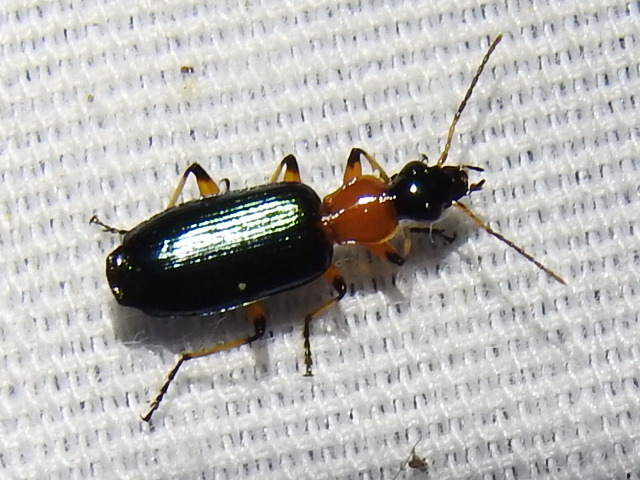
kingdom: Animalia
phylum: Arthropoda
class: Insecta
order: Coleoptera
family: Carabidae
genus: Calleida
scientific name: Calleida cordicollis
